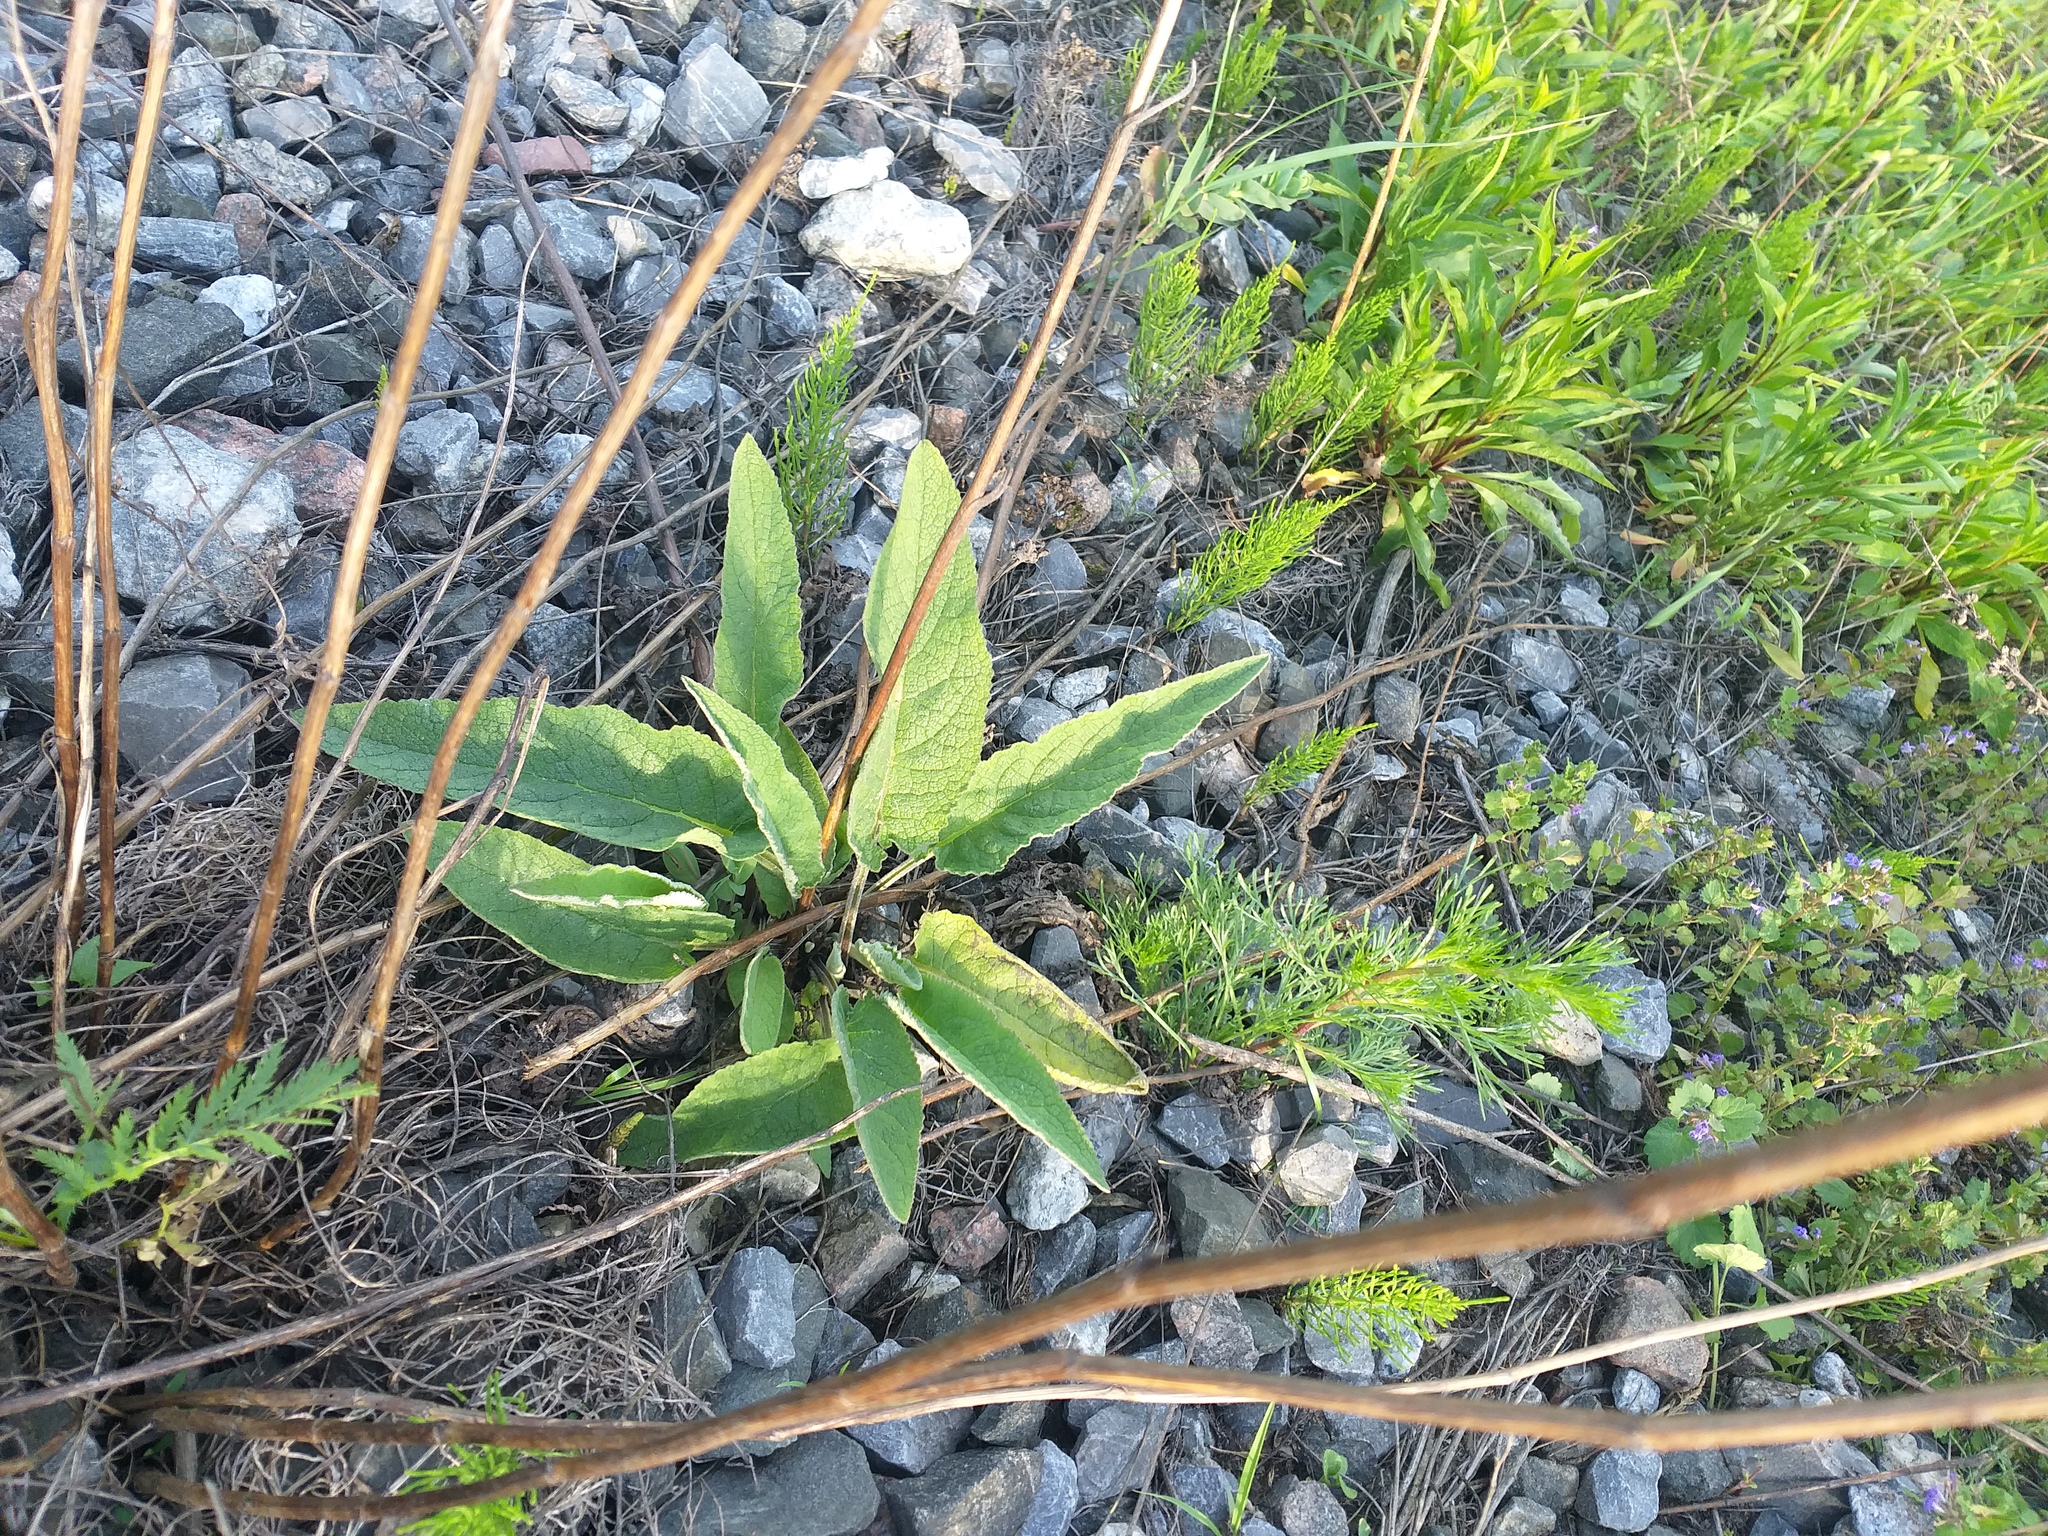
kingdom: Plantae
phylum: Tracheophyta
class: Magnoliopsida
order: Lamiales
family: Scrophulariaceae
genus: Verbascum
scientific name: Verbascum nigrum
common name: Dark mullein
